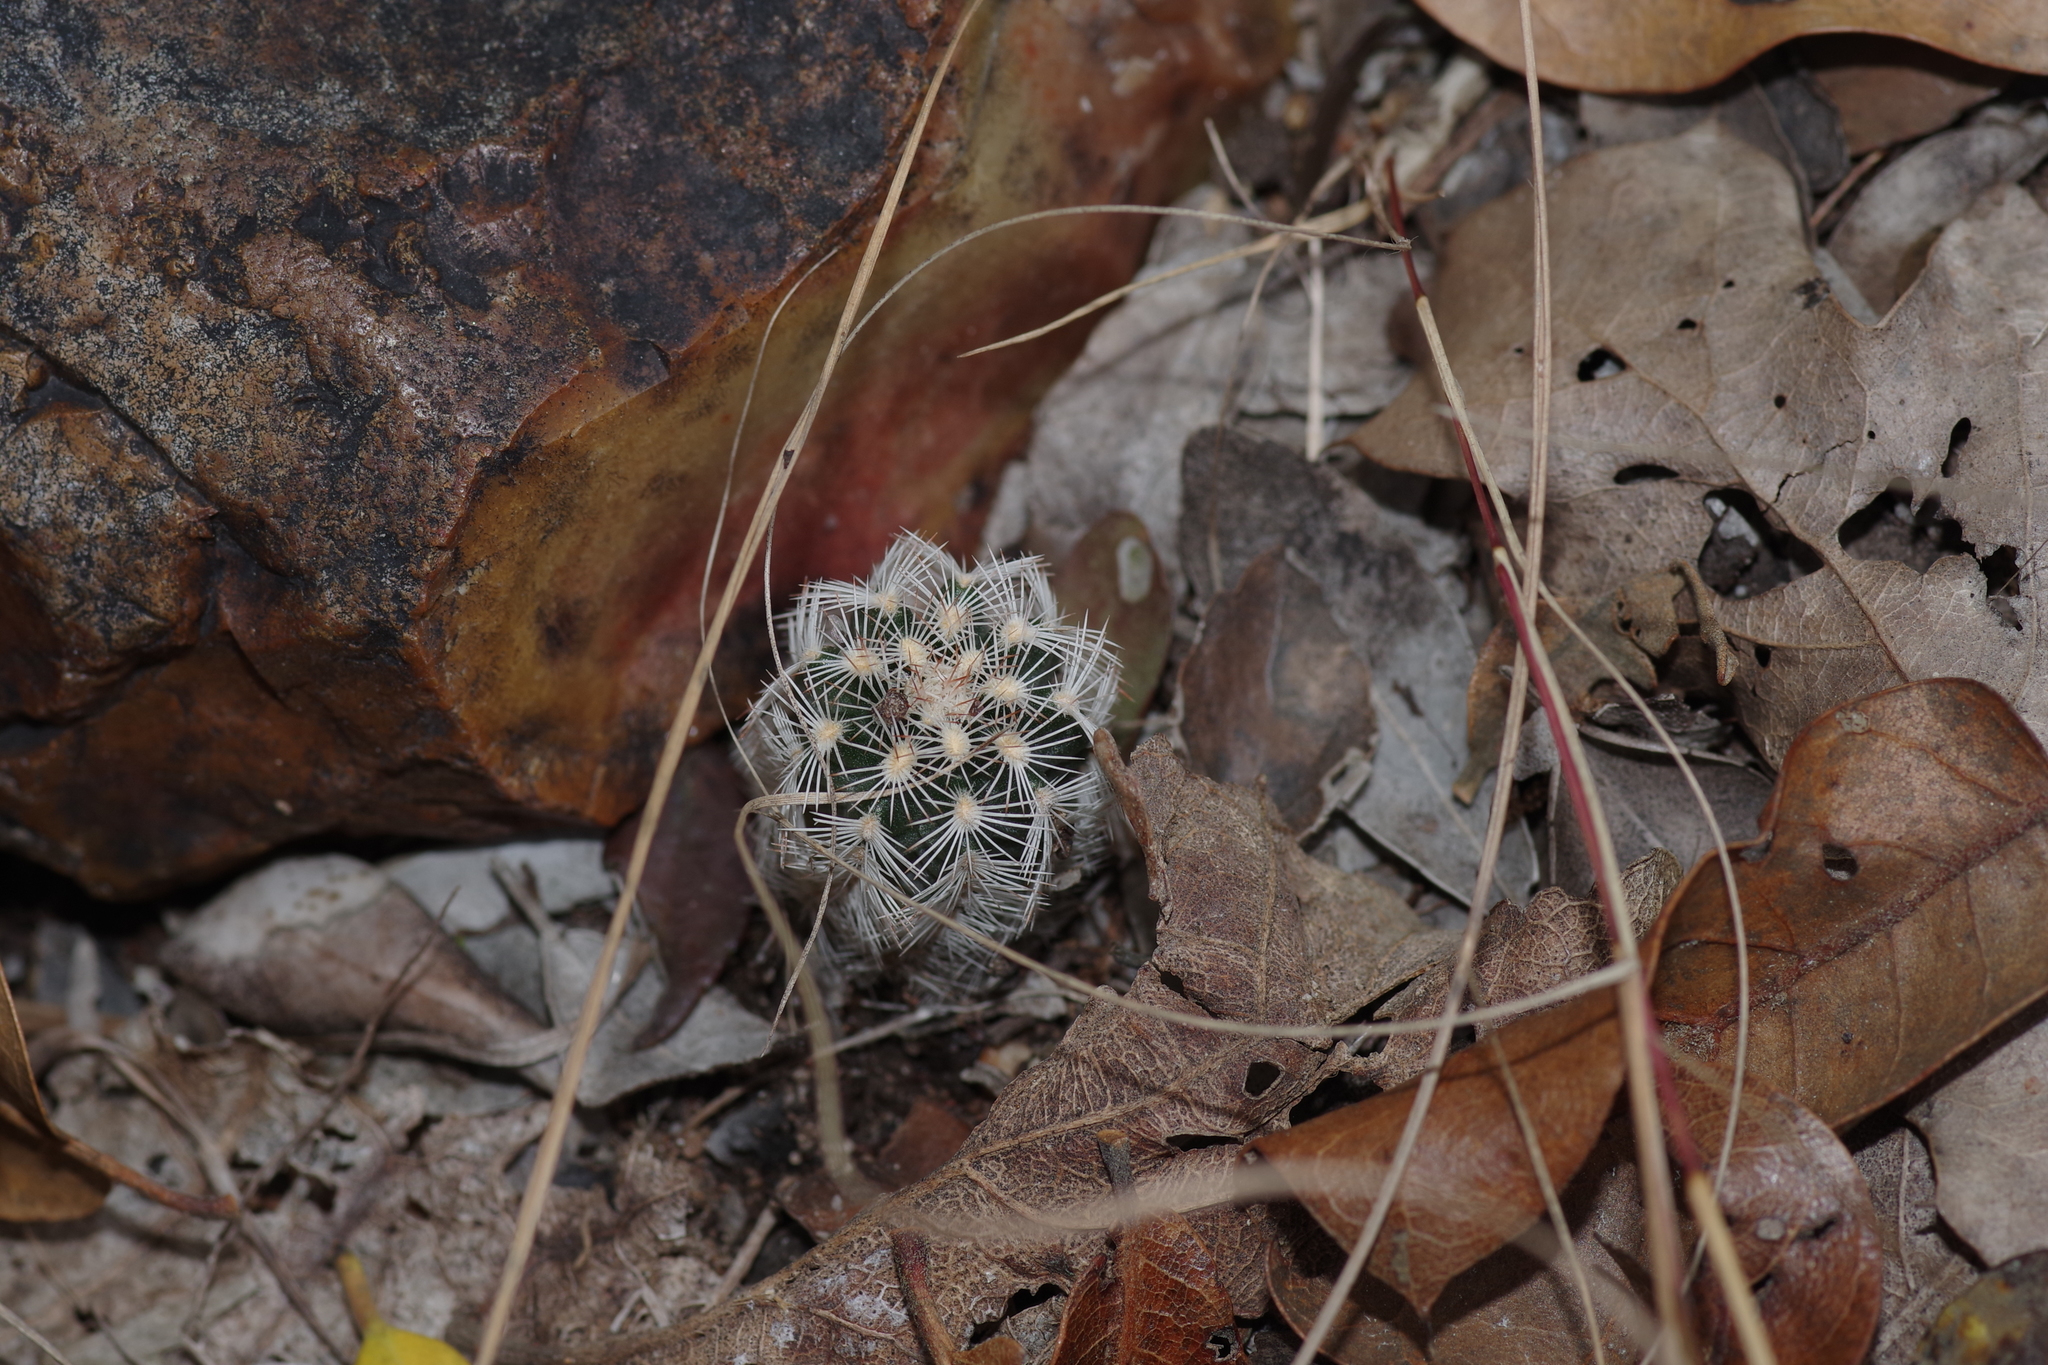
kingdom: Plantae
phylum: Tracheophyta
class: Magnoliopsida
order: Caryophyllales
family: Cactaceae
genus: Echinocereus
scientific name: Echinocereus reichenbachii
